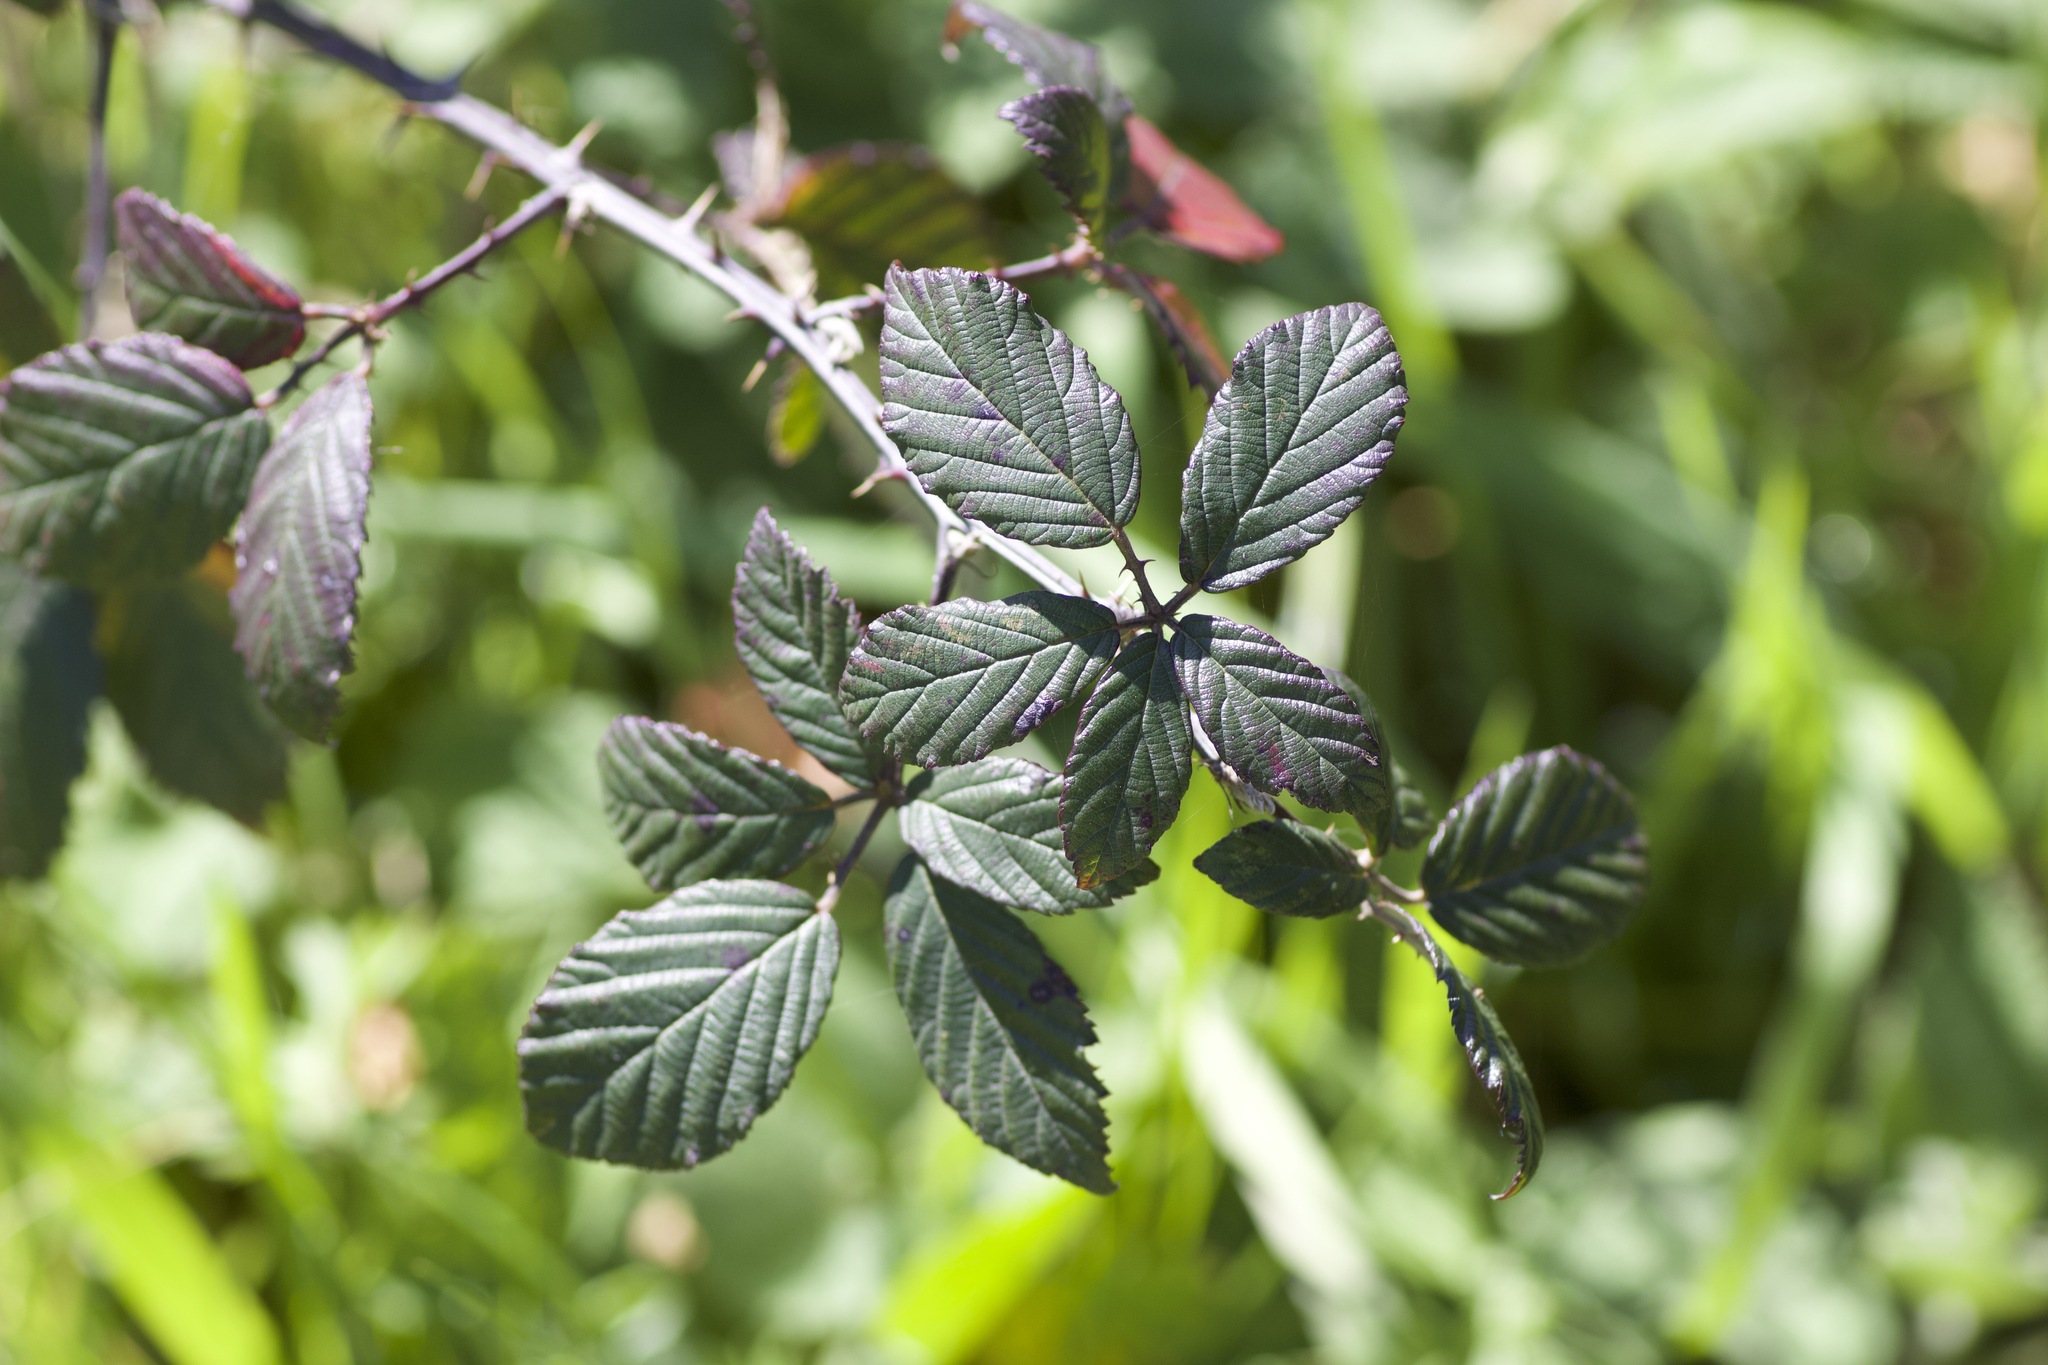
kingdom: Plantae
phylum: Tracheophyta
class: Magnoliopsida
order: Rosales
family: Rosaceae
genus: Rubus
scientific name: Rubus armeniacus
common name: Himalayan blackberry
